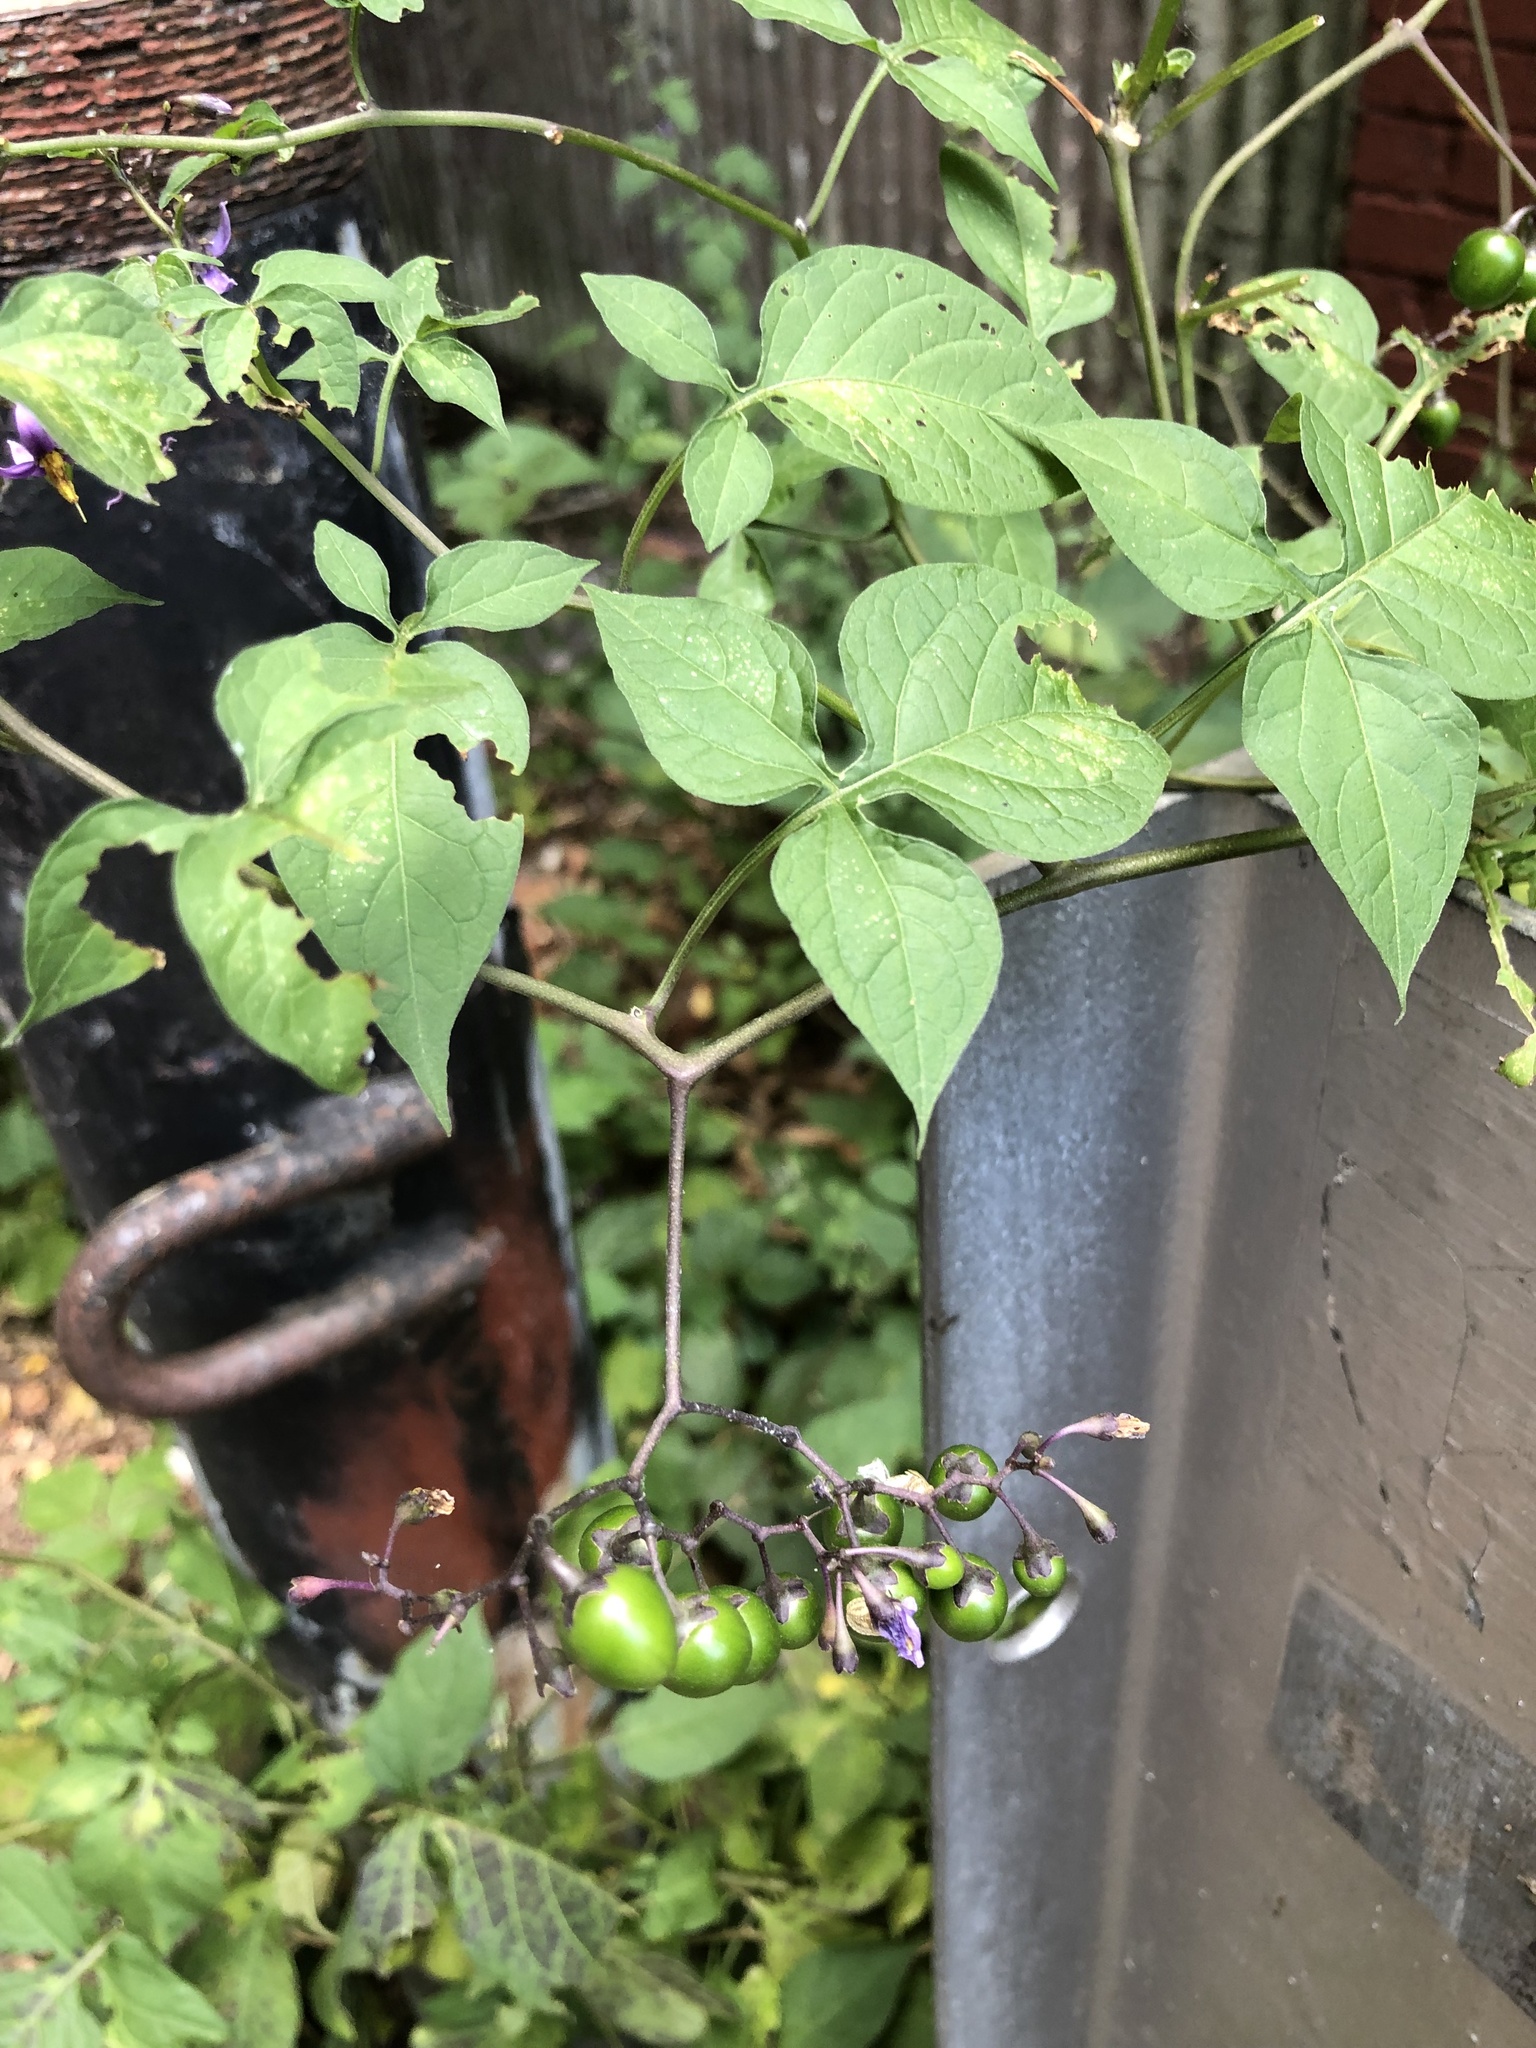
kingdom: Plantae
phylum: Tracheophyta
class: Magnoliopsida
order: Solanales
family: Solanaceae
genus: Solanum
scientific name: Solanum dulcamara
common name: Climbing nightshade
